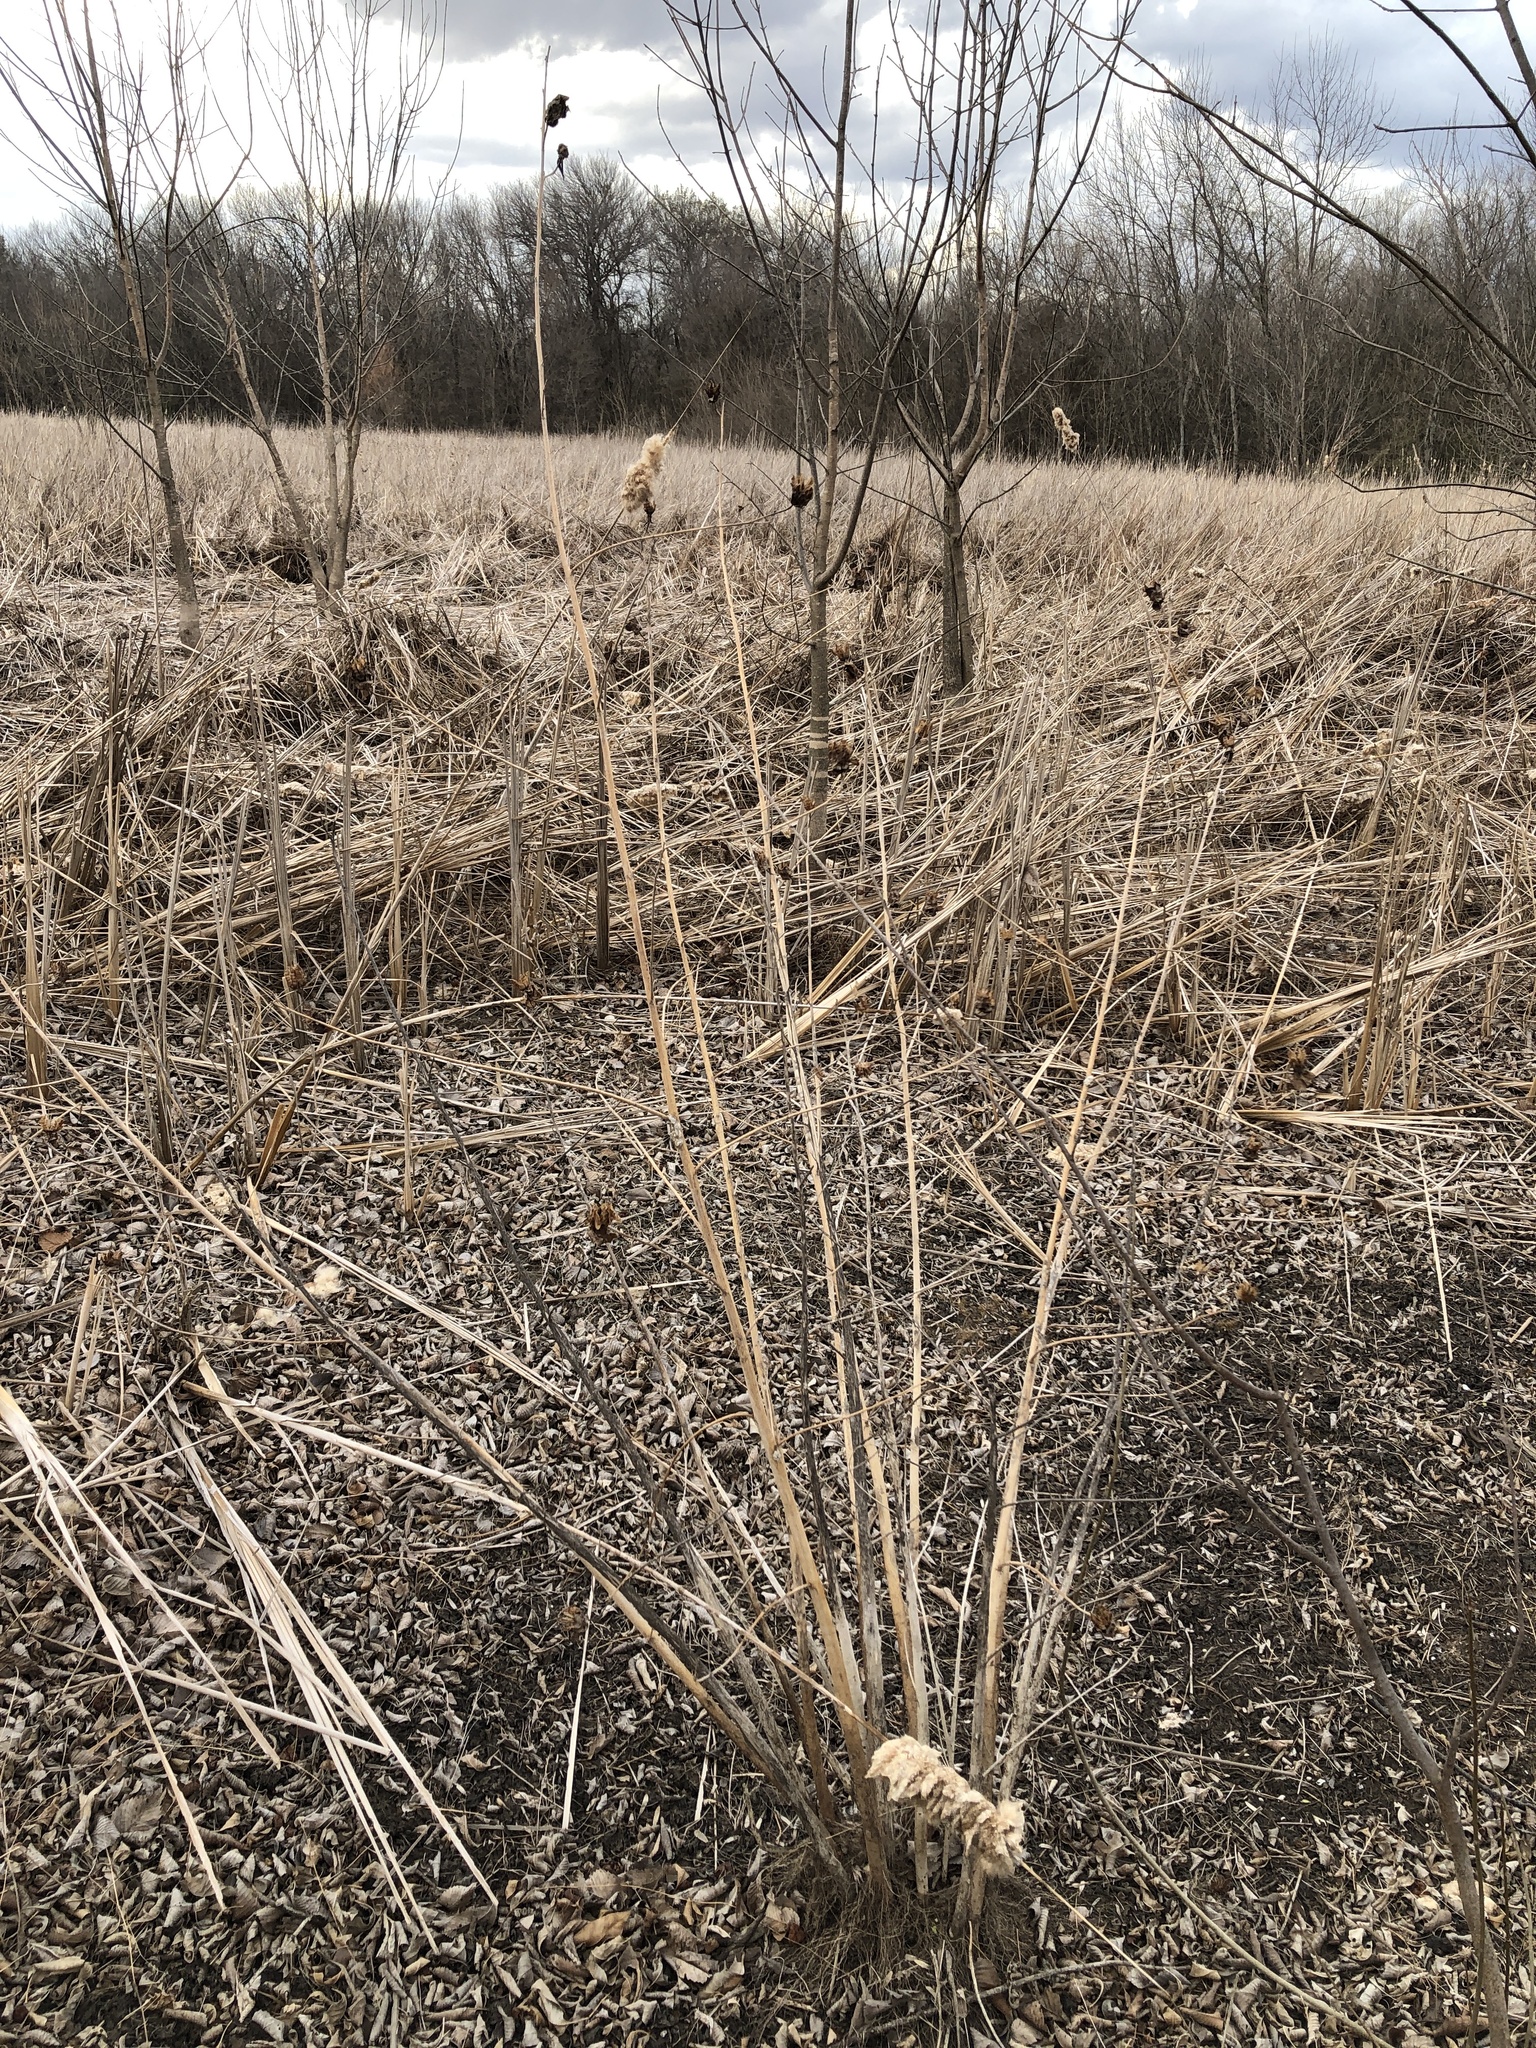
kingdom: Plantae
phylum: Tracheophyta
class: Magnoliopsida
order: Malvales
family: Malvaceae
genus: Hibiscus
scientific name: Hibiscus laevis
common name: Scarlet rose-mallow
